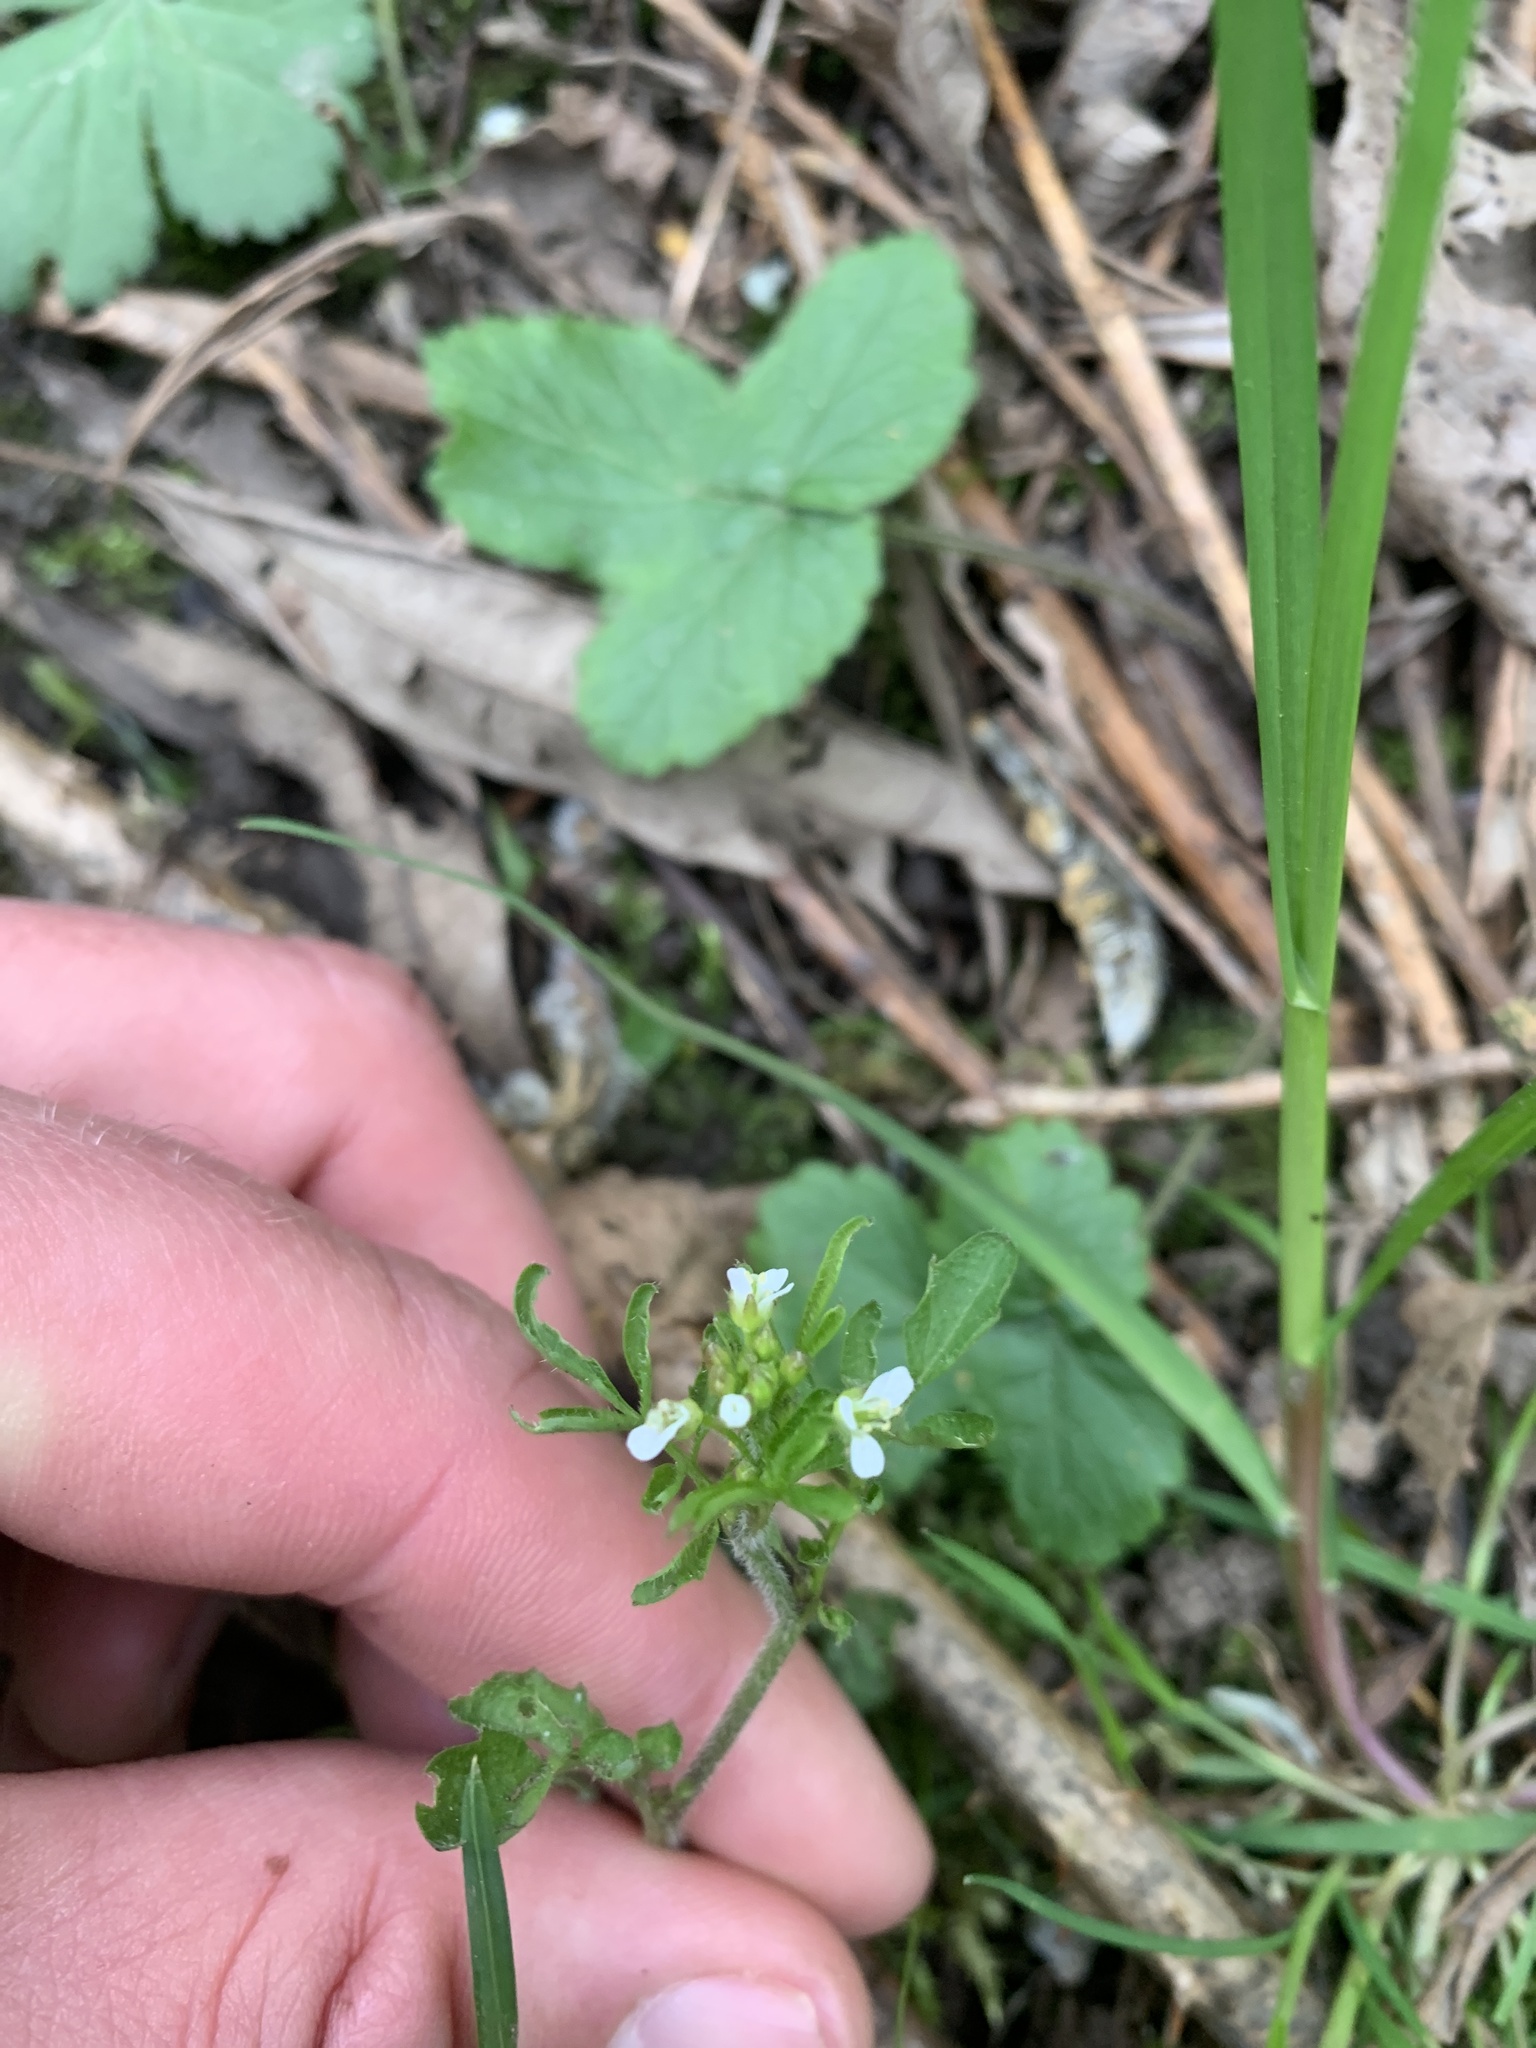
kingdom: Plantae
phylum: Tracheophyta
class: Magnoliopsida
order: Brassicales
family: Brassicaceae
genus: Cardamine
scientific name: Cardamine flexuosa
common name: Woodland bittercress
